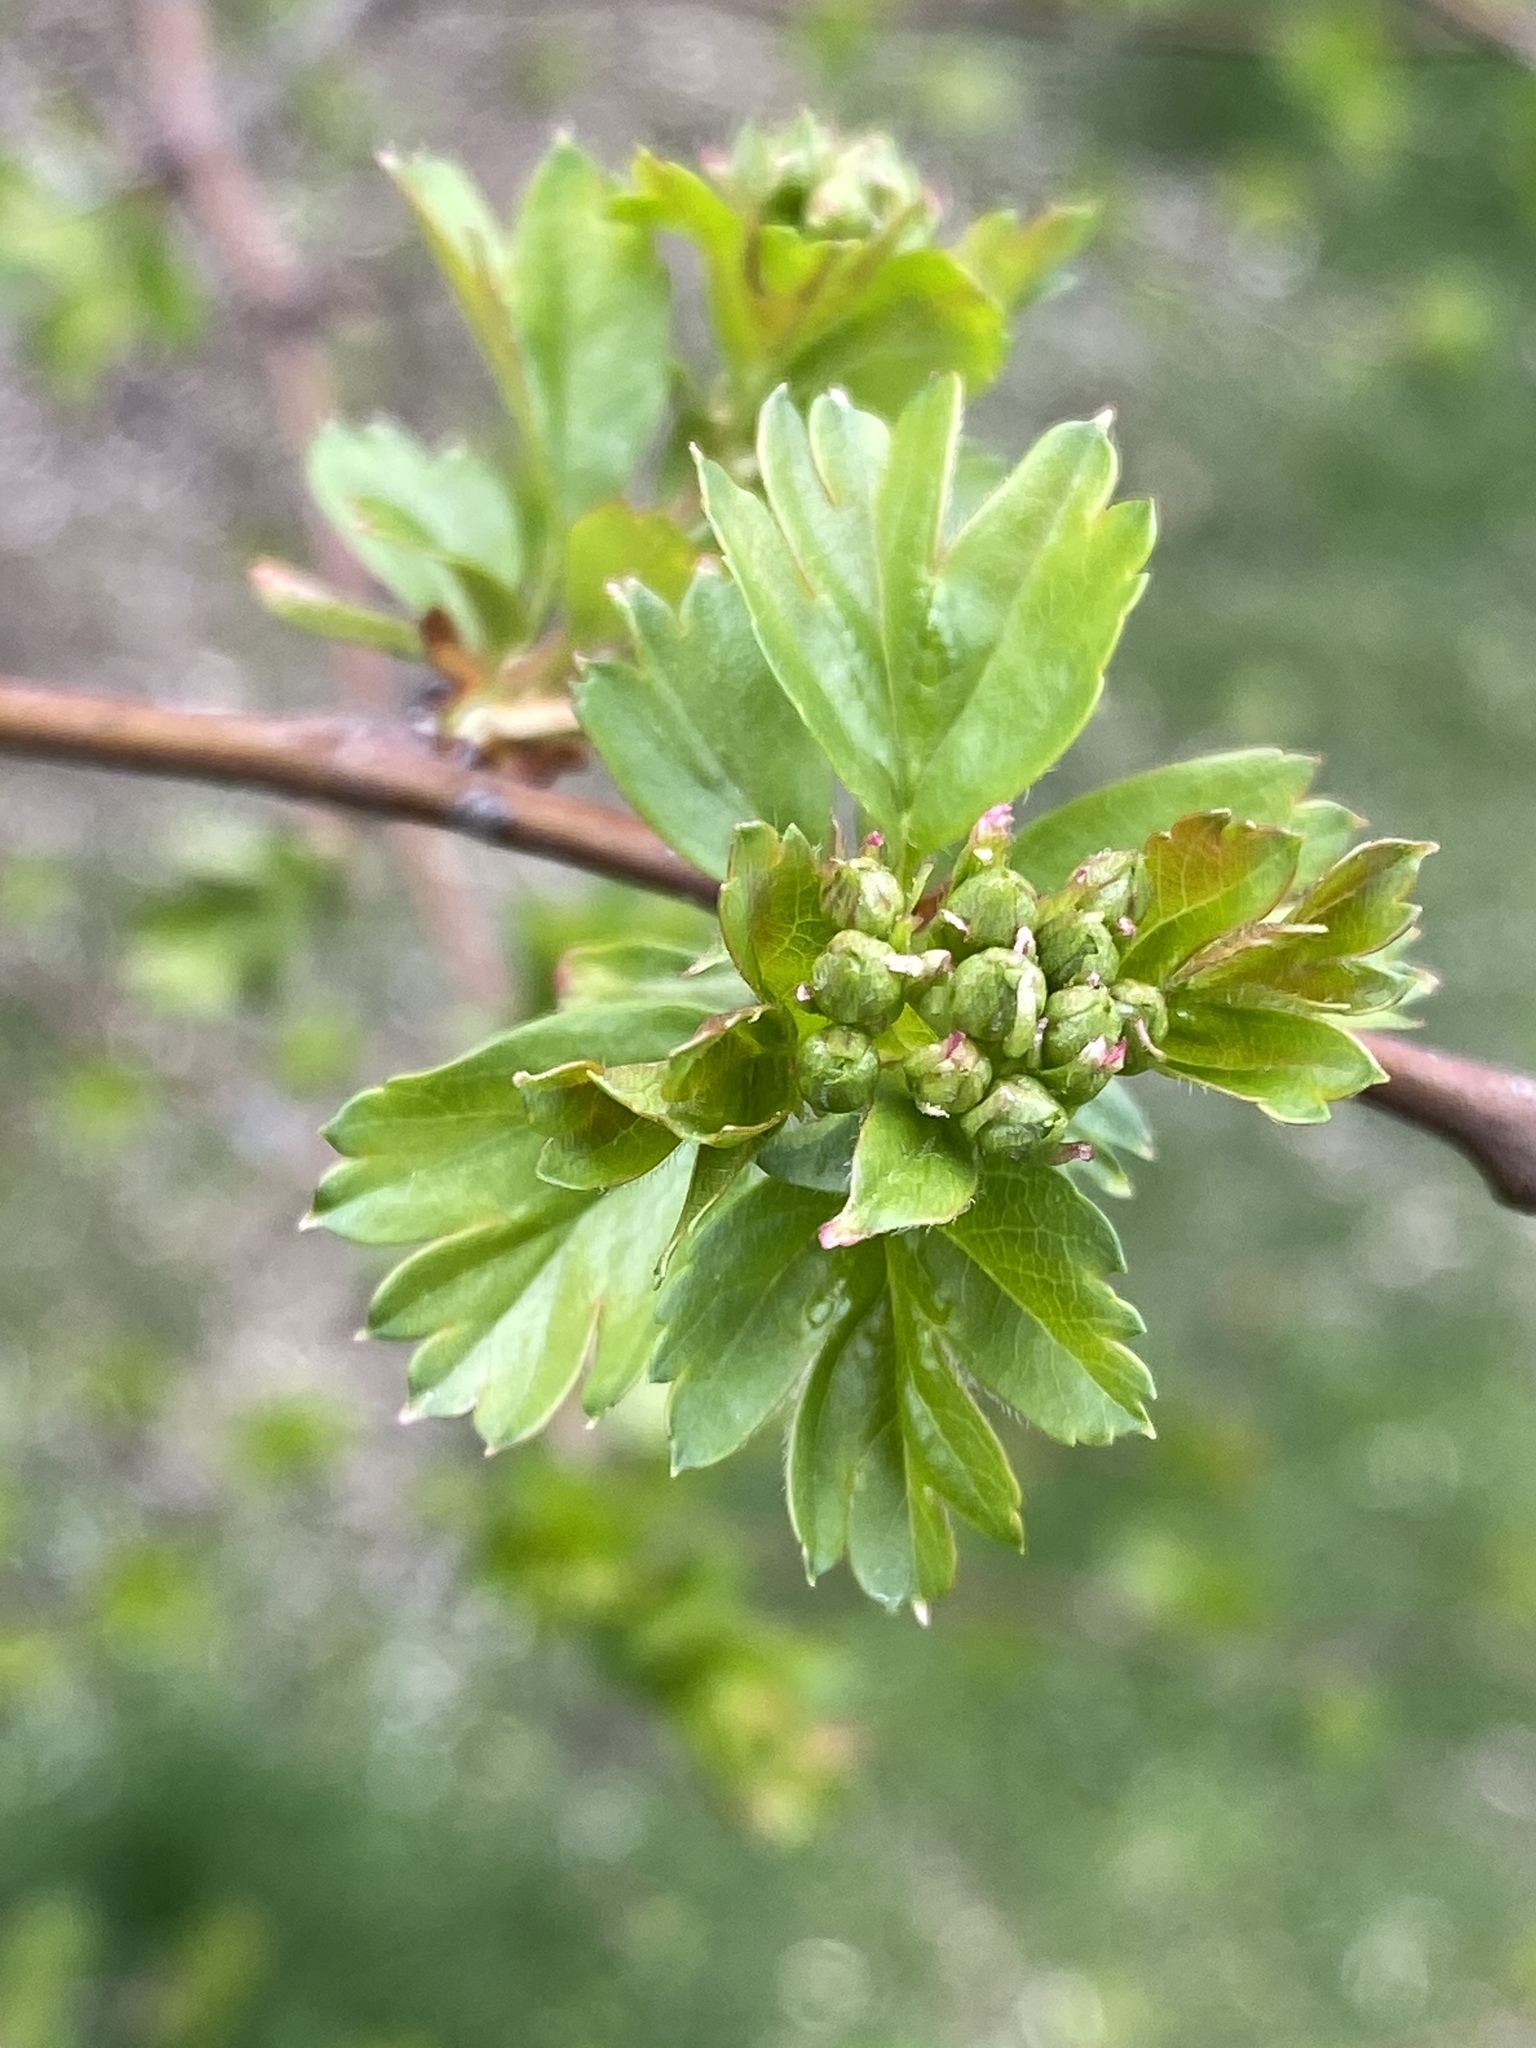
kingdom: Plantae
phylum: Tracheophyta
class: Magnoliopsida
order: Rosales
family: Rosaceae
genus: Crataegus
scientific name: Crataegus monogyna
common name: Hawthorn
